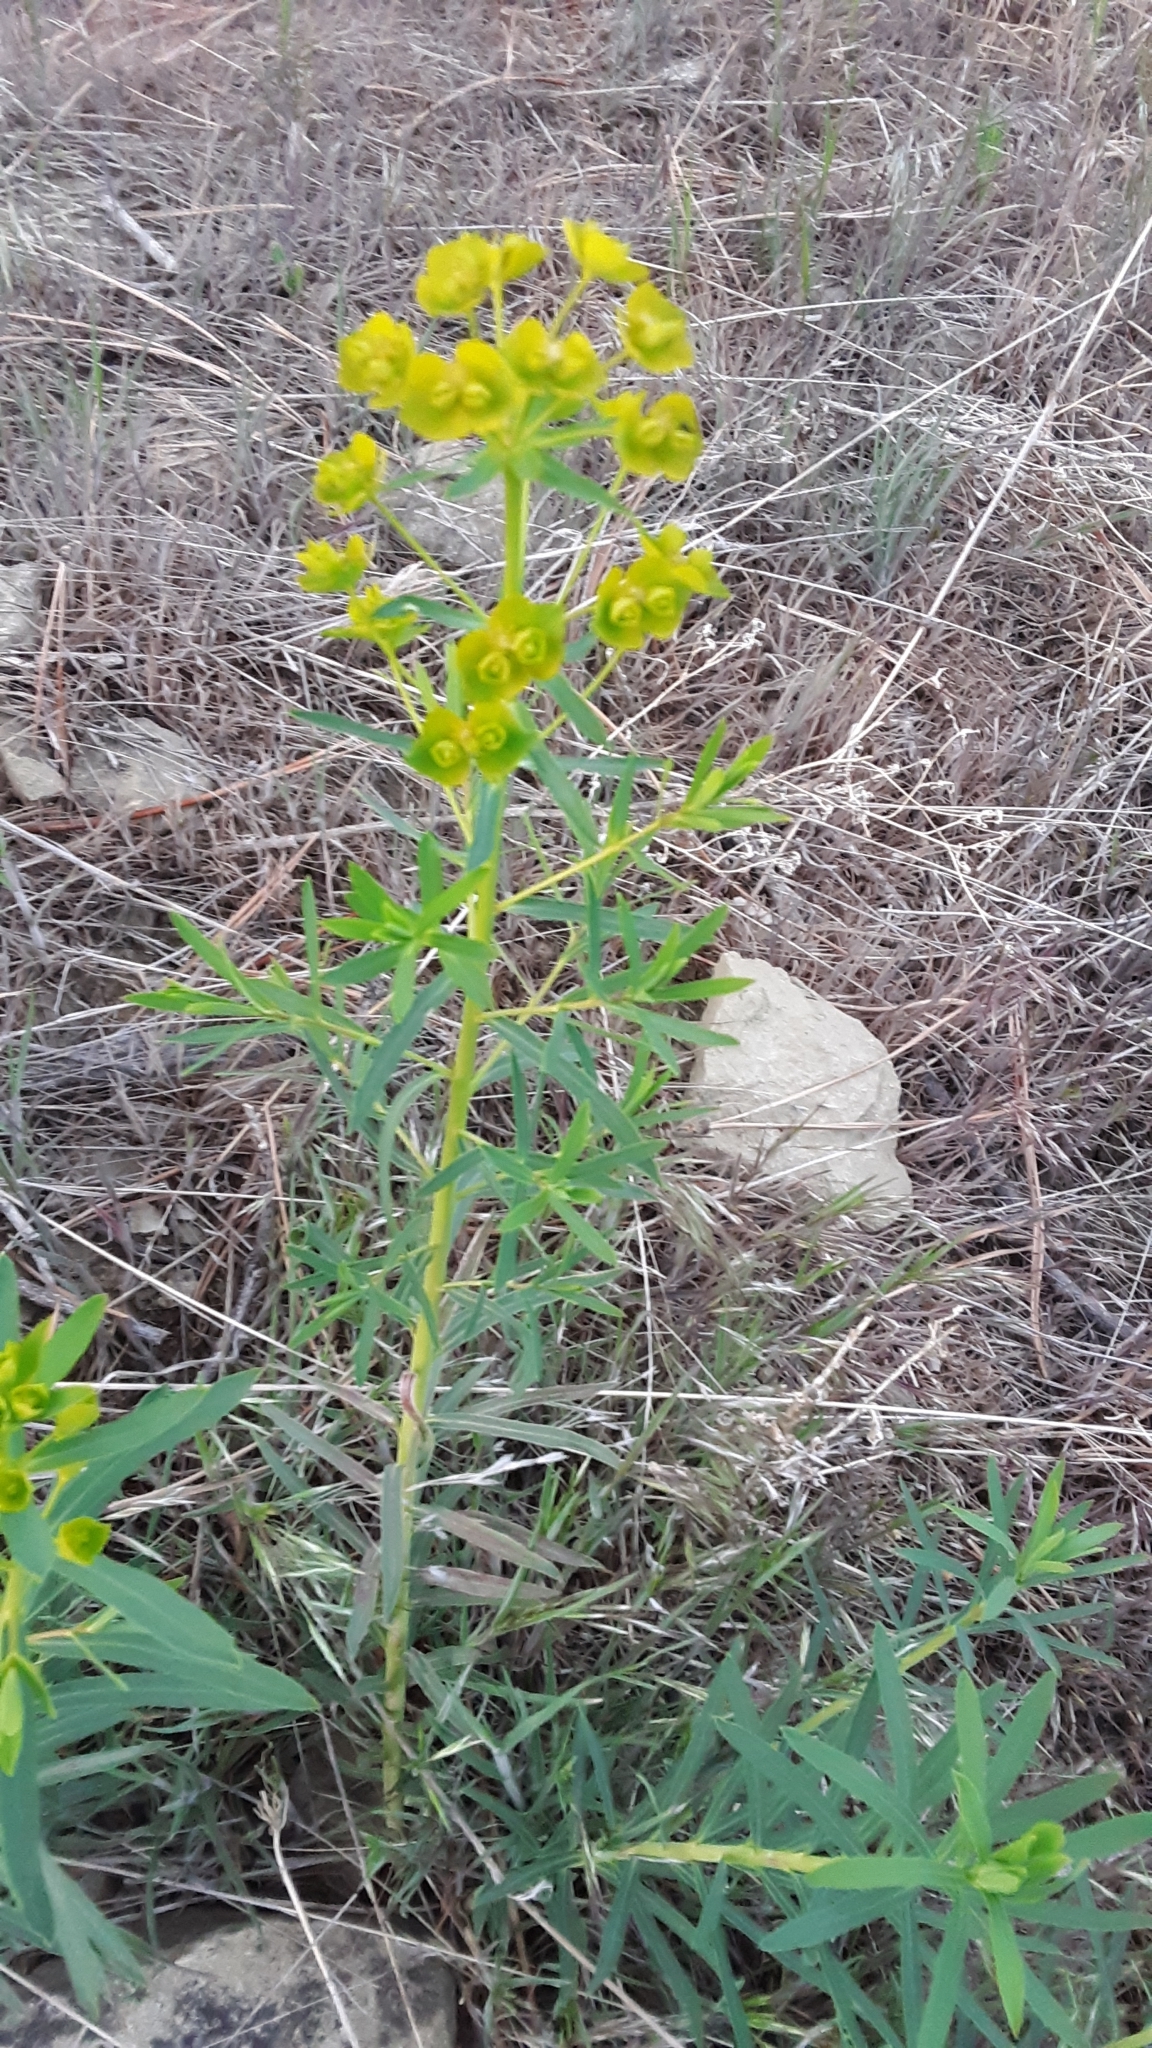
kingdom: Plantae
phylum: Tracheophyta
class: Magnoliopsida
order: Malpighiales
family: Euphorbiaceae
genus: Euphorbia
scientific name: Euphorbia virgata
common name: Leafy spurge
